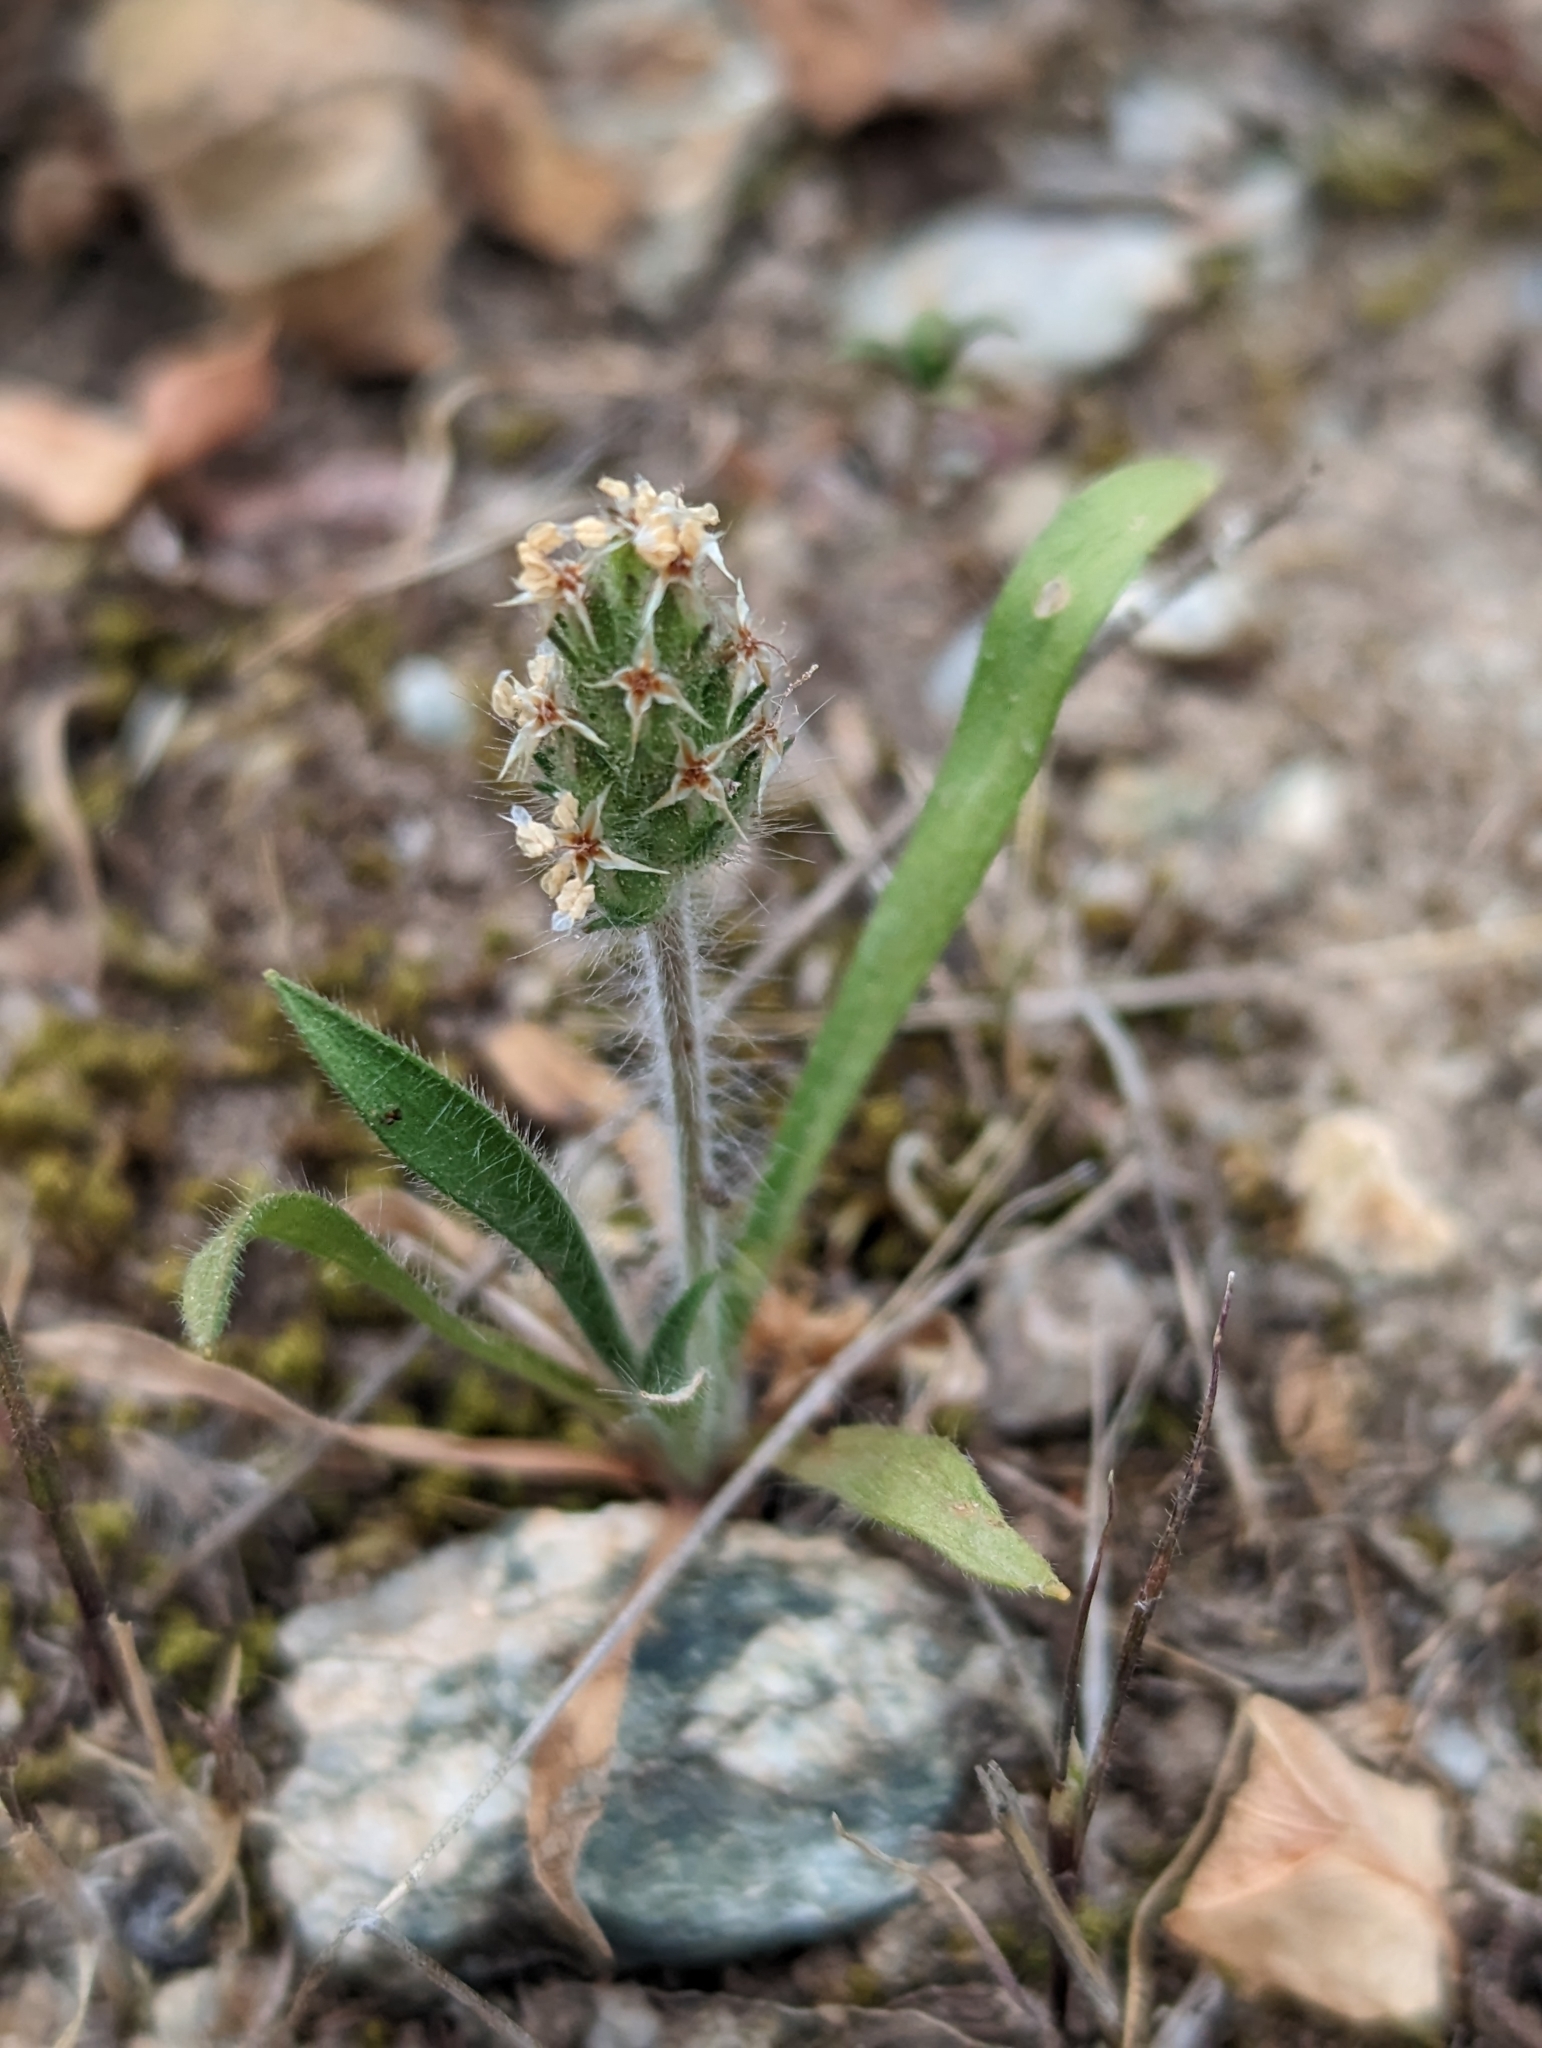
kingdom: Plantae
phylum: Tracheophyta
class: Magnoliopsida
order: Lamiales
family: Plantaginaceae
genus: Plantago
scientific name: Plantago bellardii
